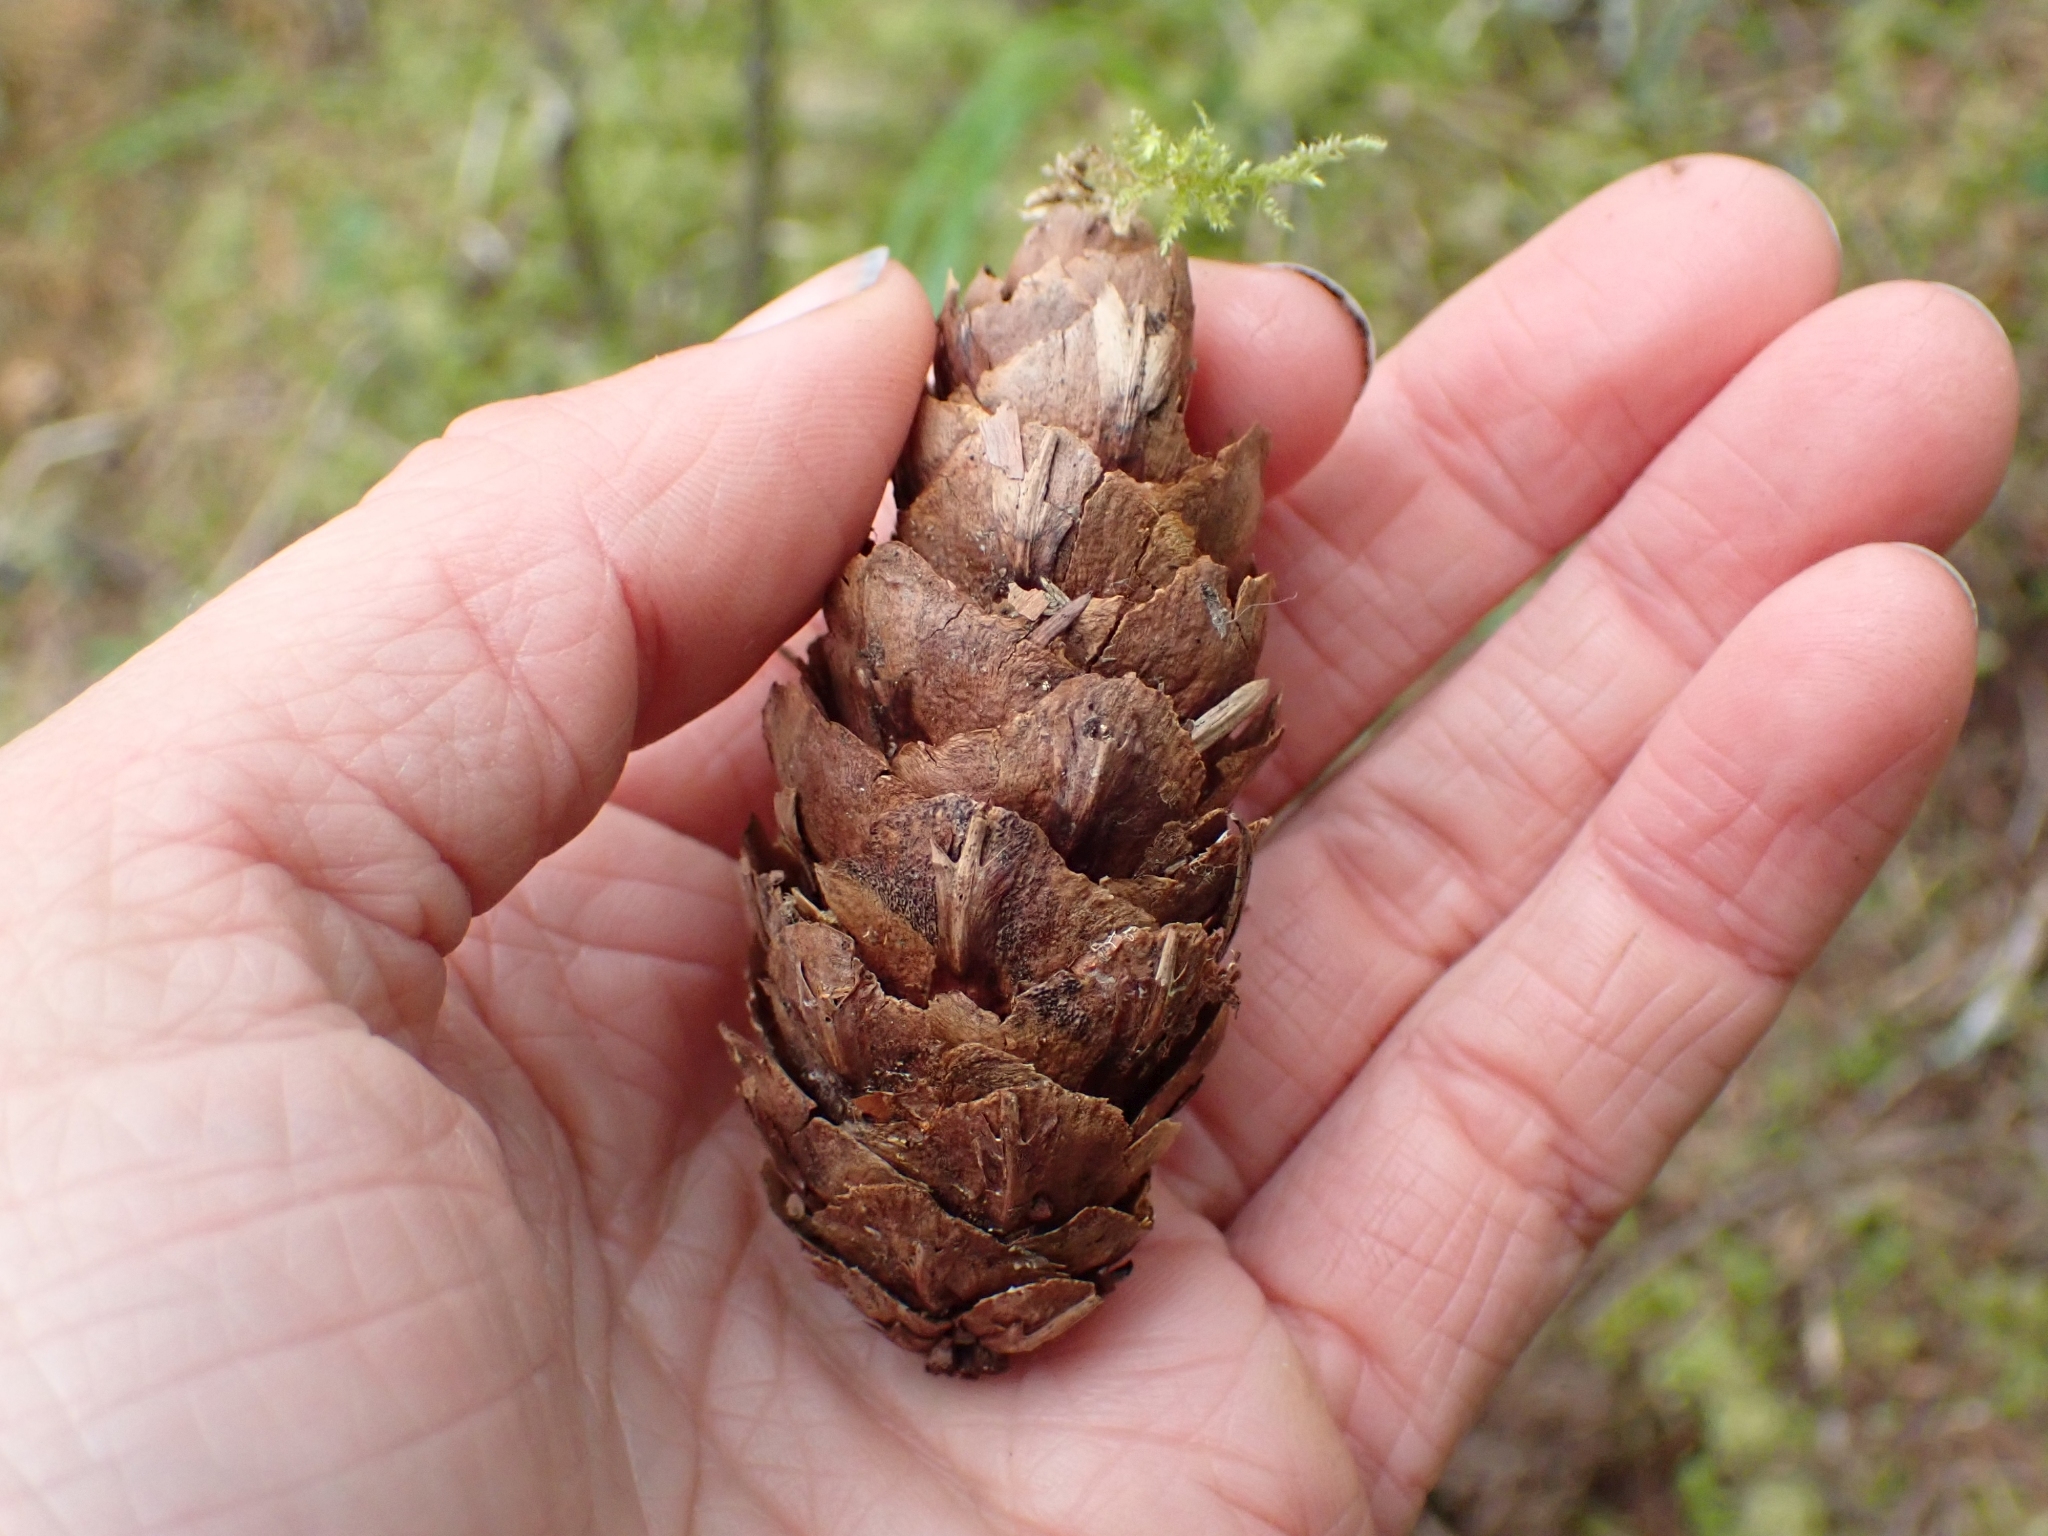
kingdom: Plantae
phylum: Tracheophyta
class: Pinopsida
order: Pinales
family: Pinaceae
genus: Pseudotsuga
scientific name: Pseudotsuga menziesii
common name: Douglas fir
